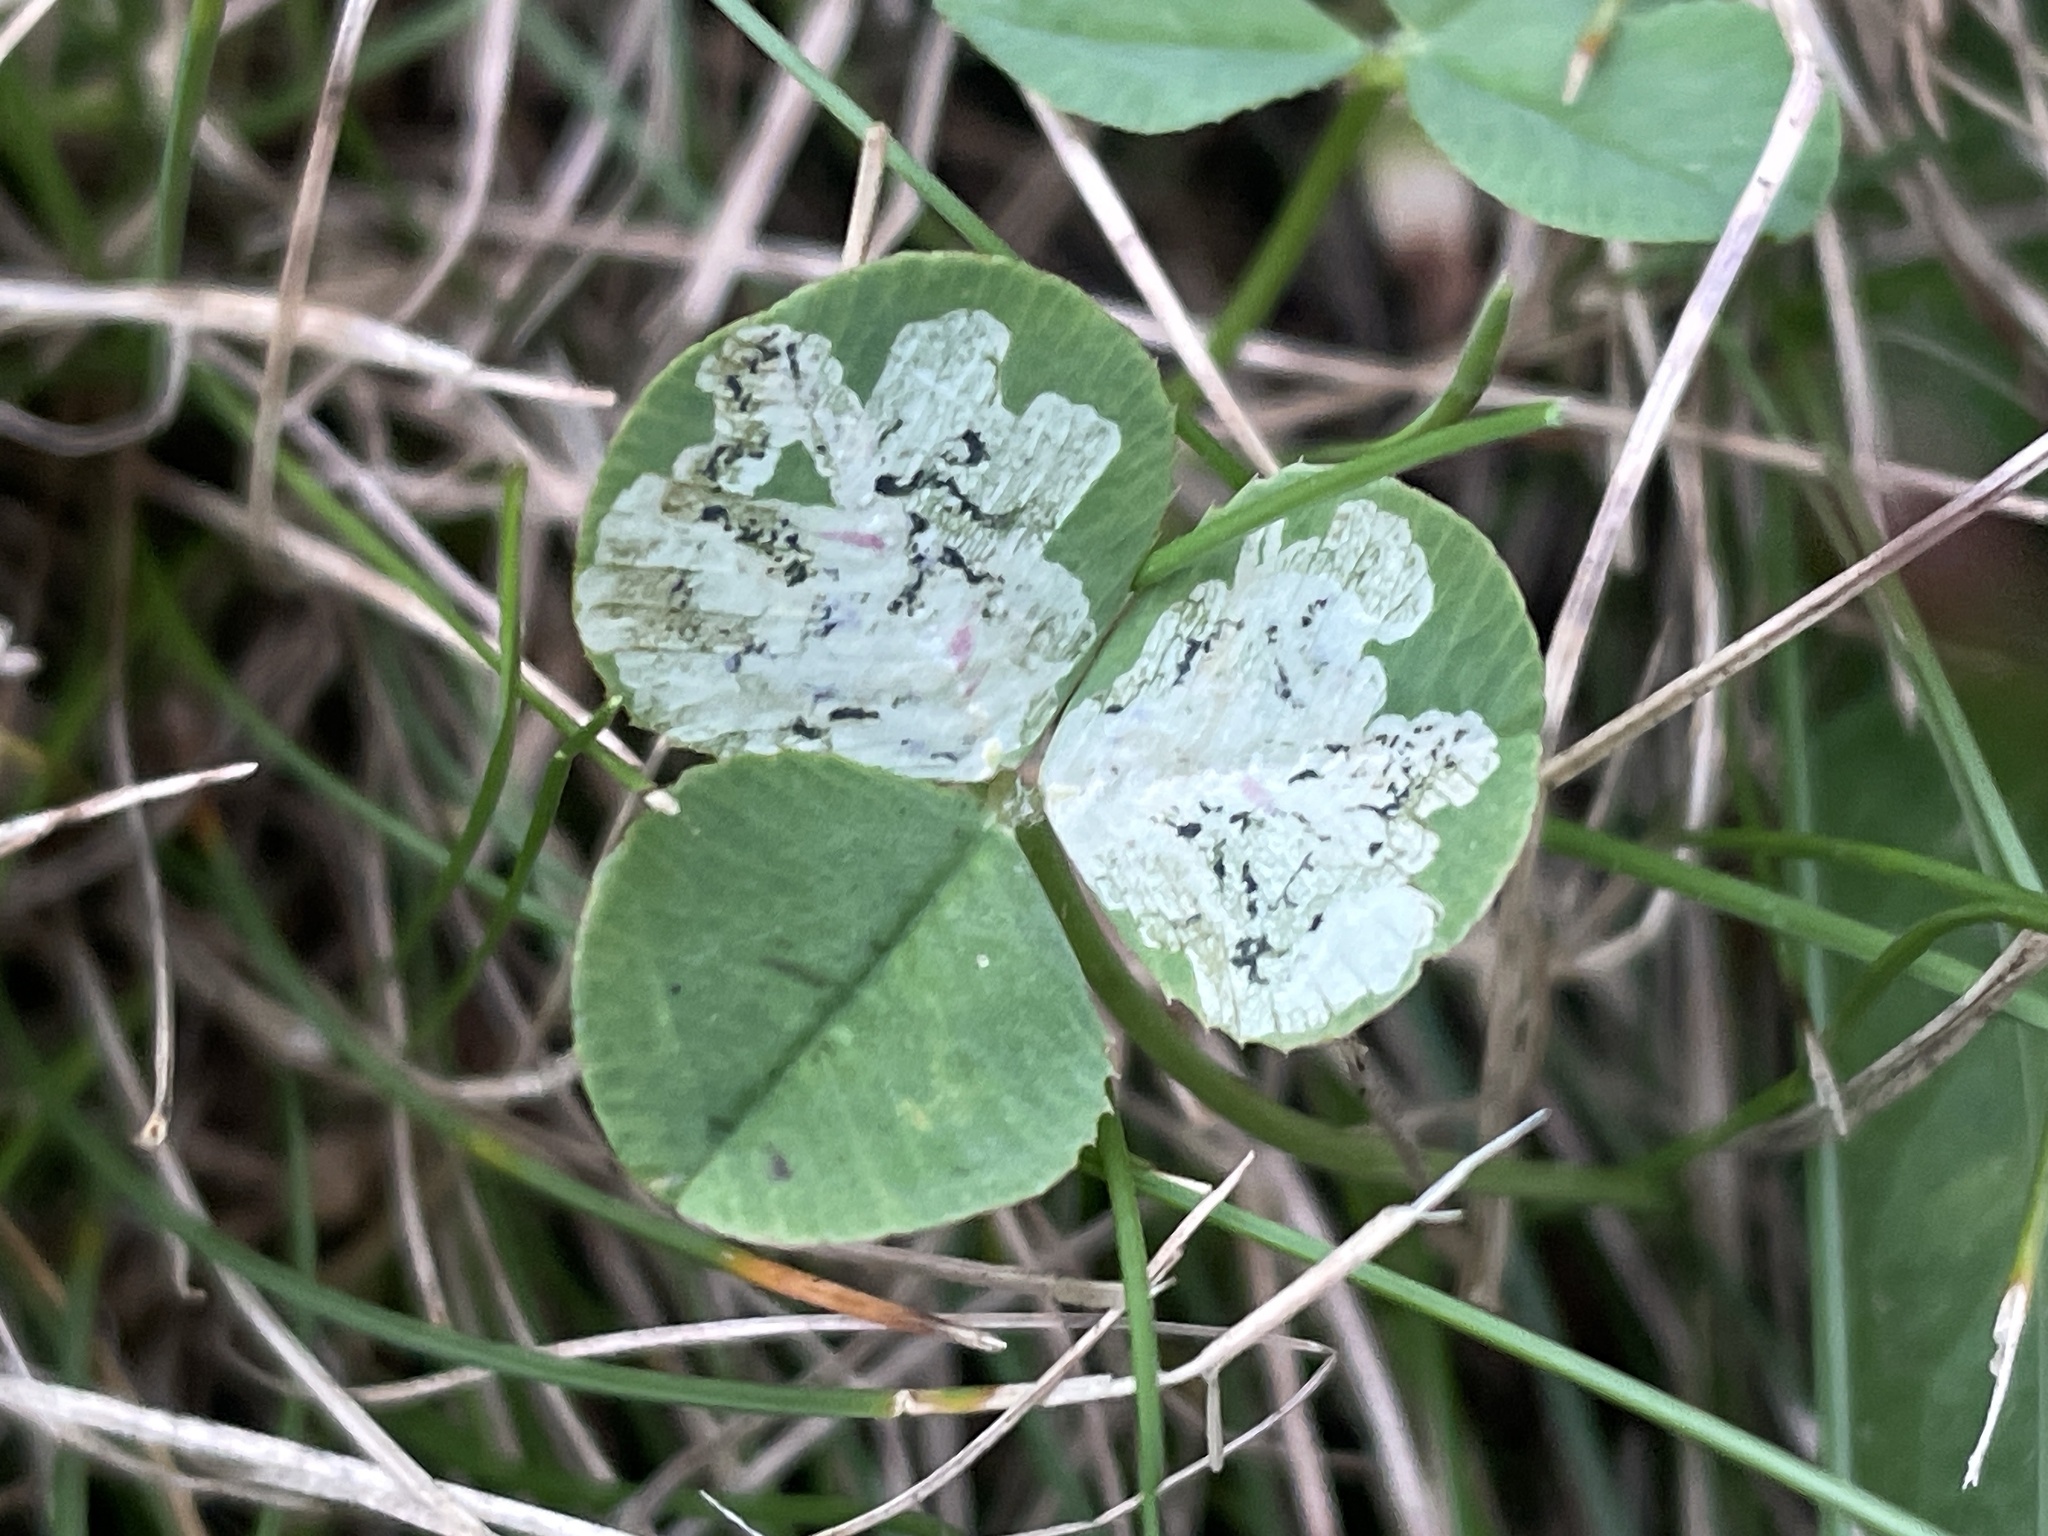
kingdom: Animalia
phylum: Arthropoda
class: Insecta
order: Diptera
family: Agromyzidae
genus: Liriomyza
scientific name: Liriomyza fricki
